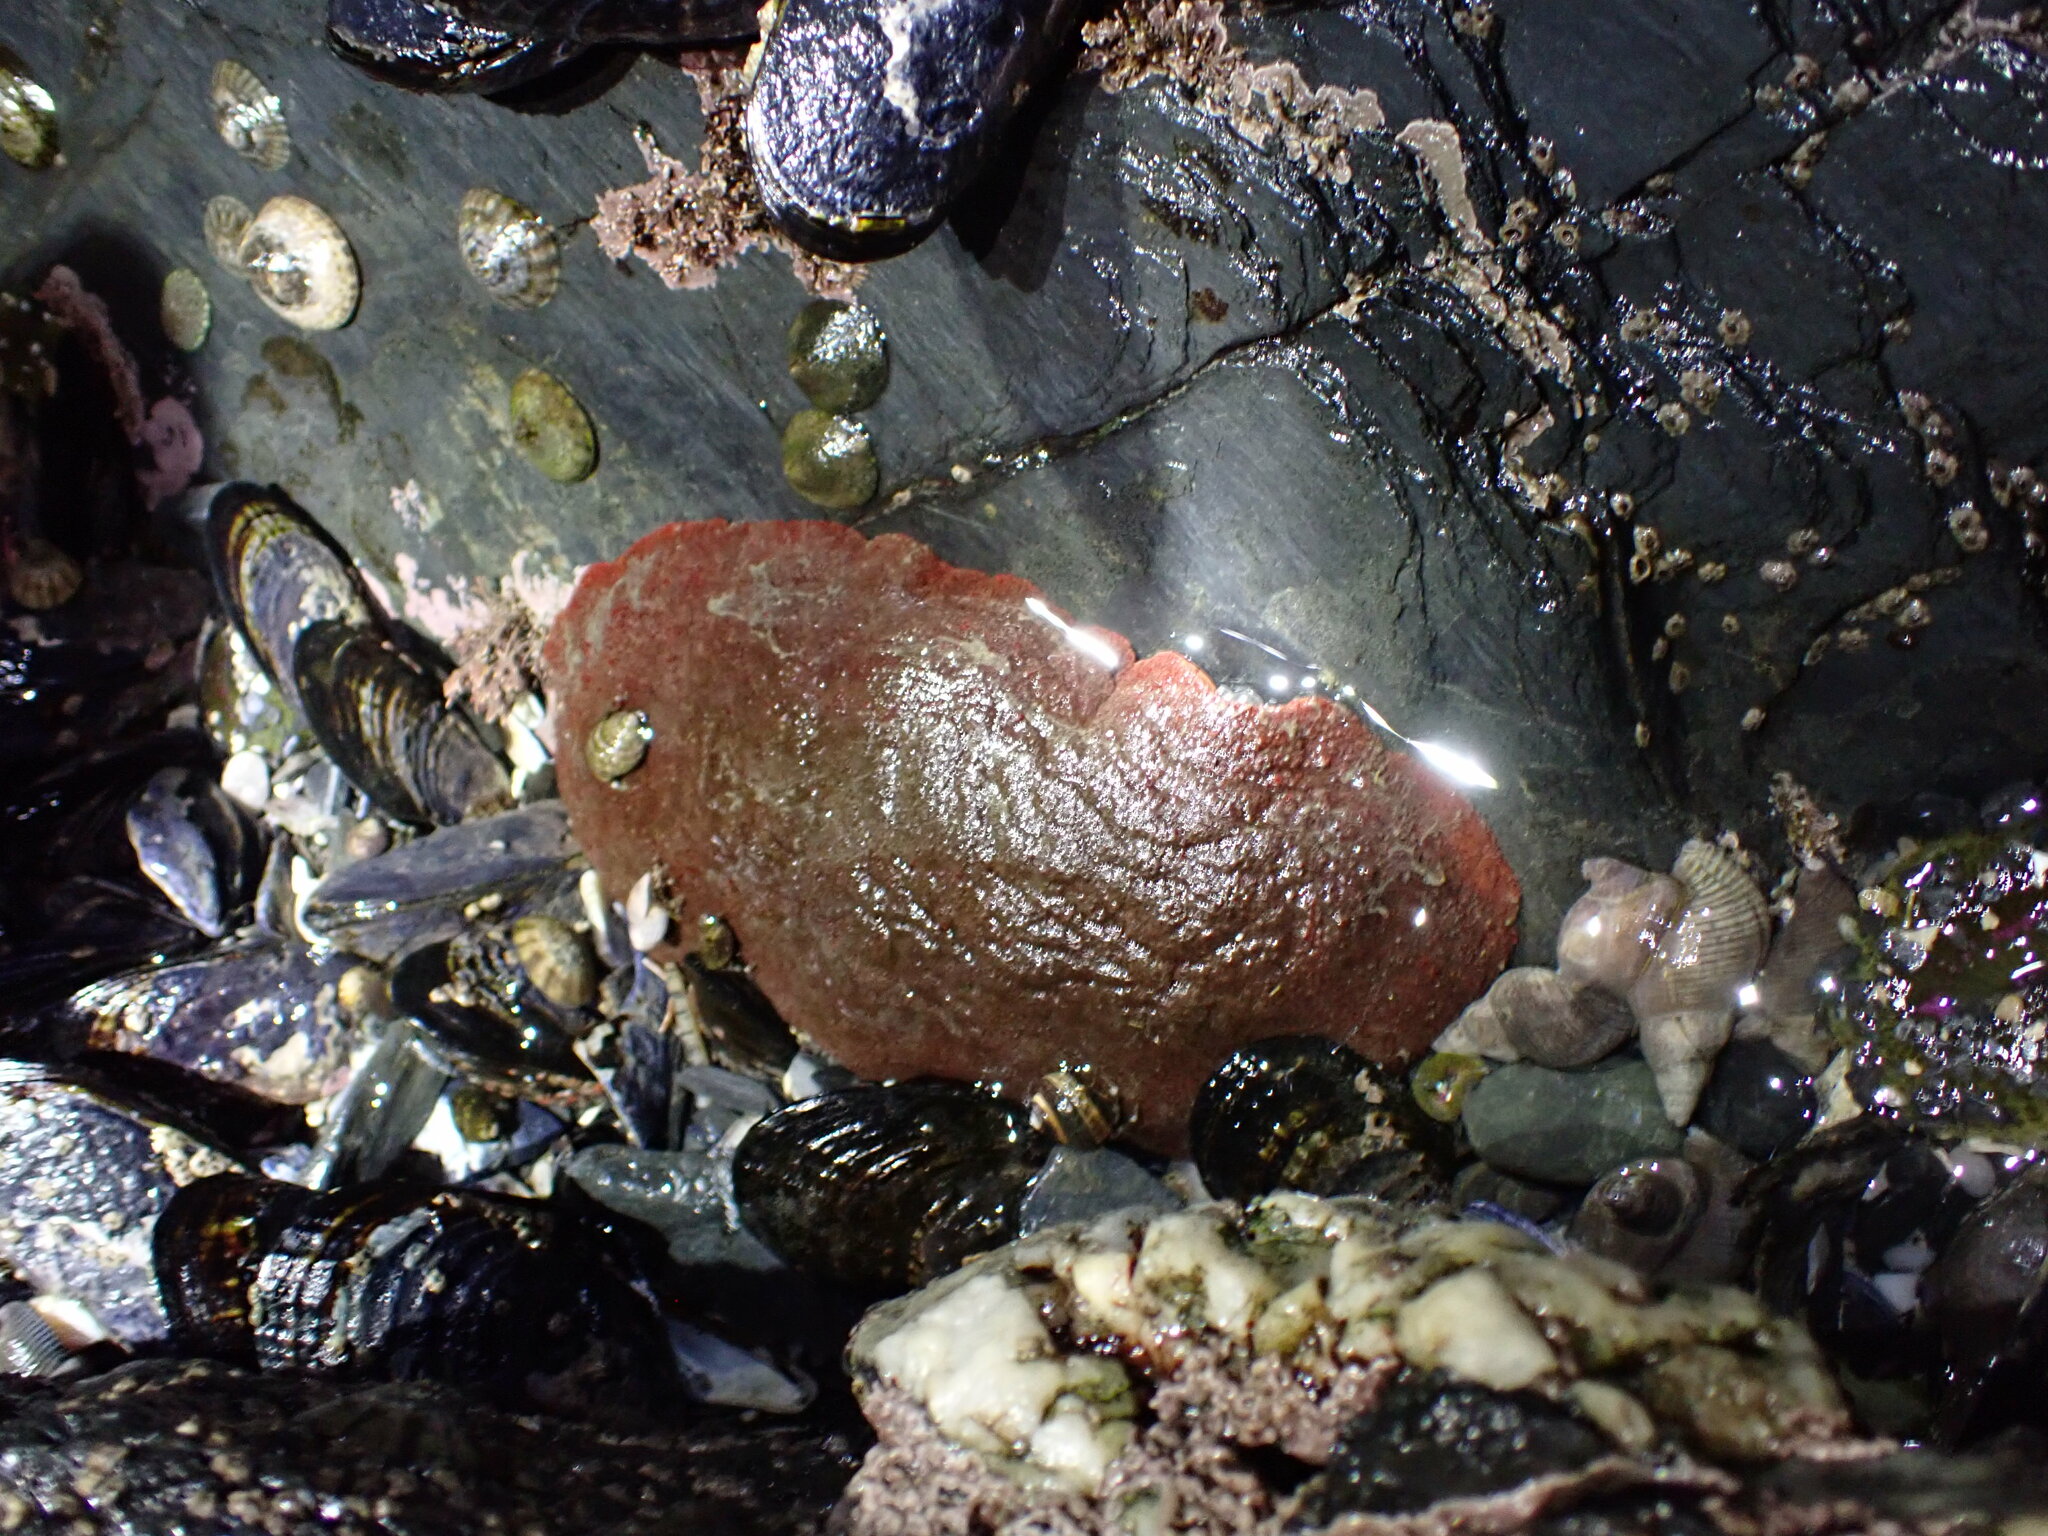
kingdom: Animalia
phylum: Mollusca
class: Polyplacophora
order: Chitonida
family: Acanthochitonidae
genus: Cryptochiton
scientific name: Cryptochiton stelleri
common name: Giant pacific chiton
